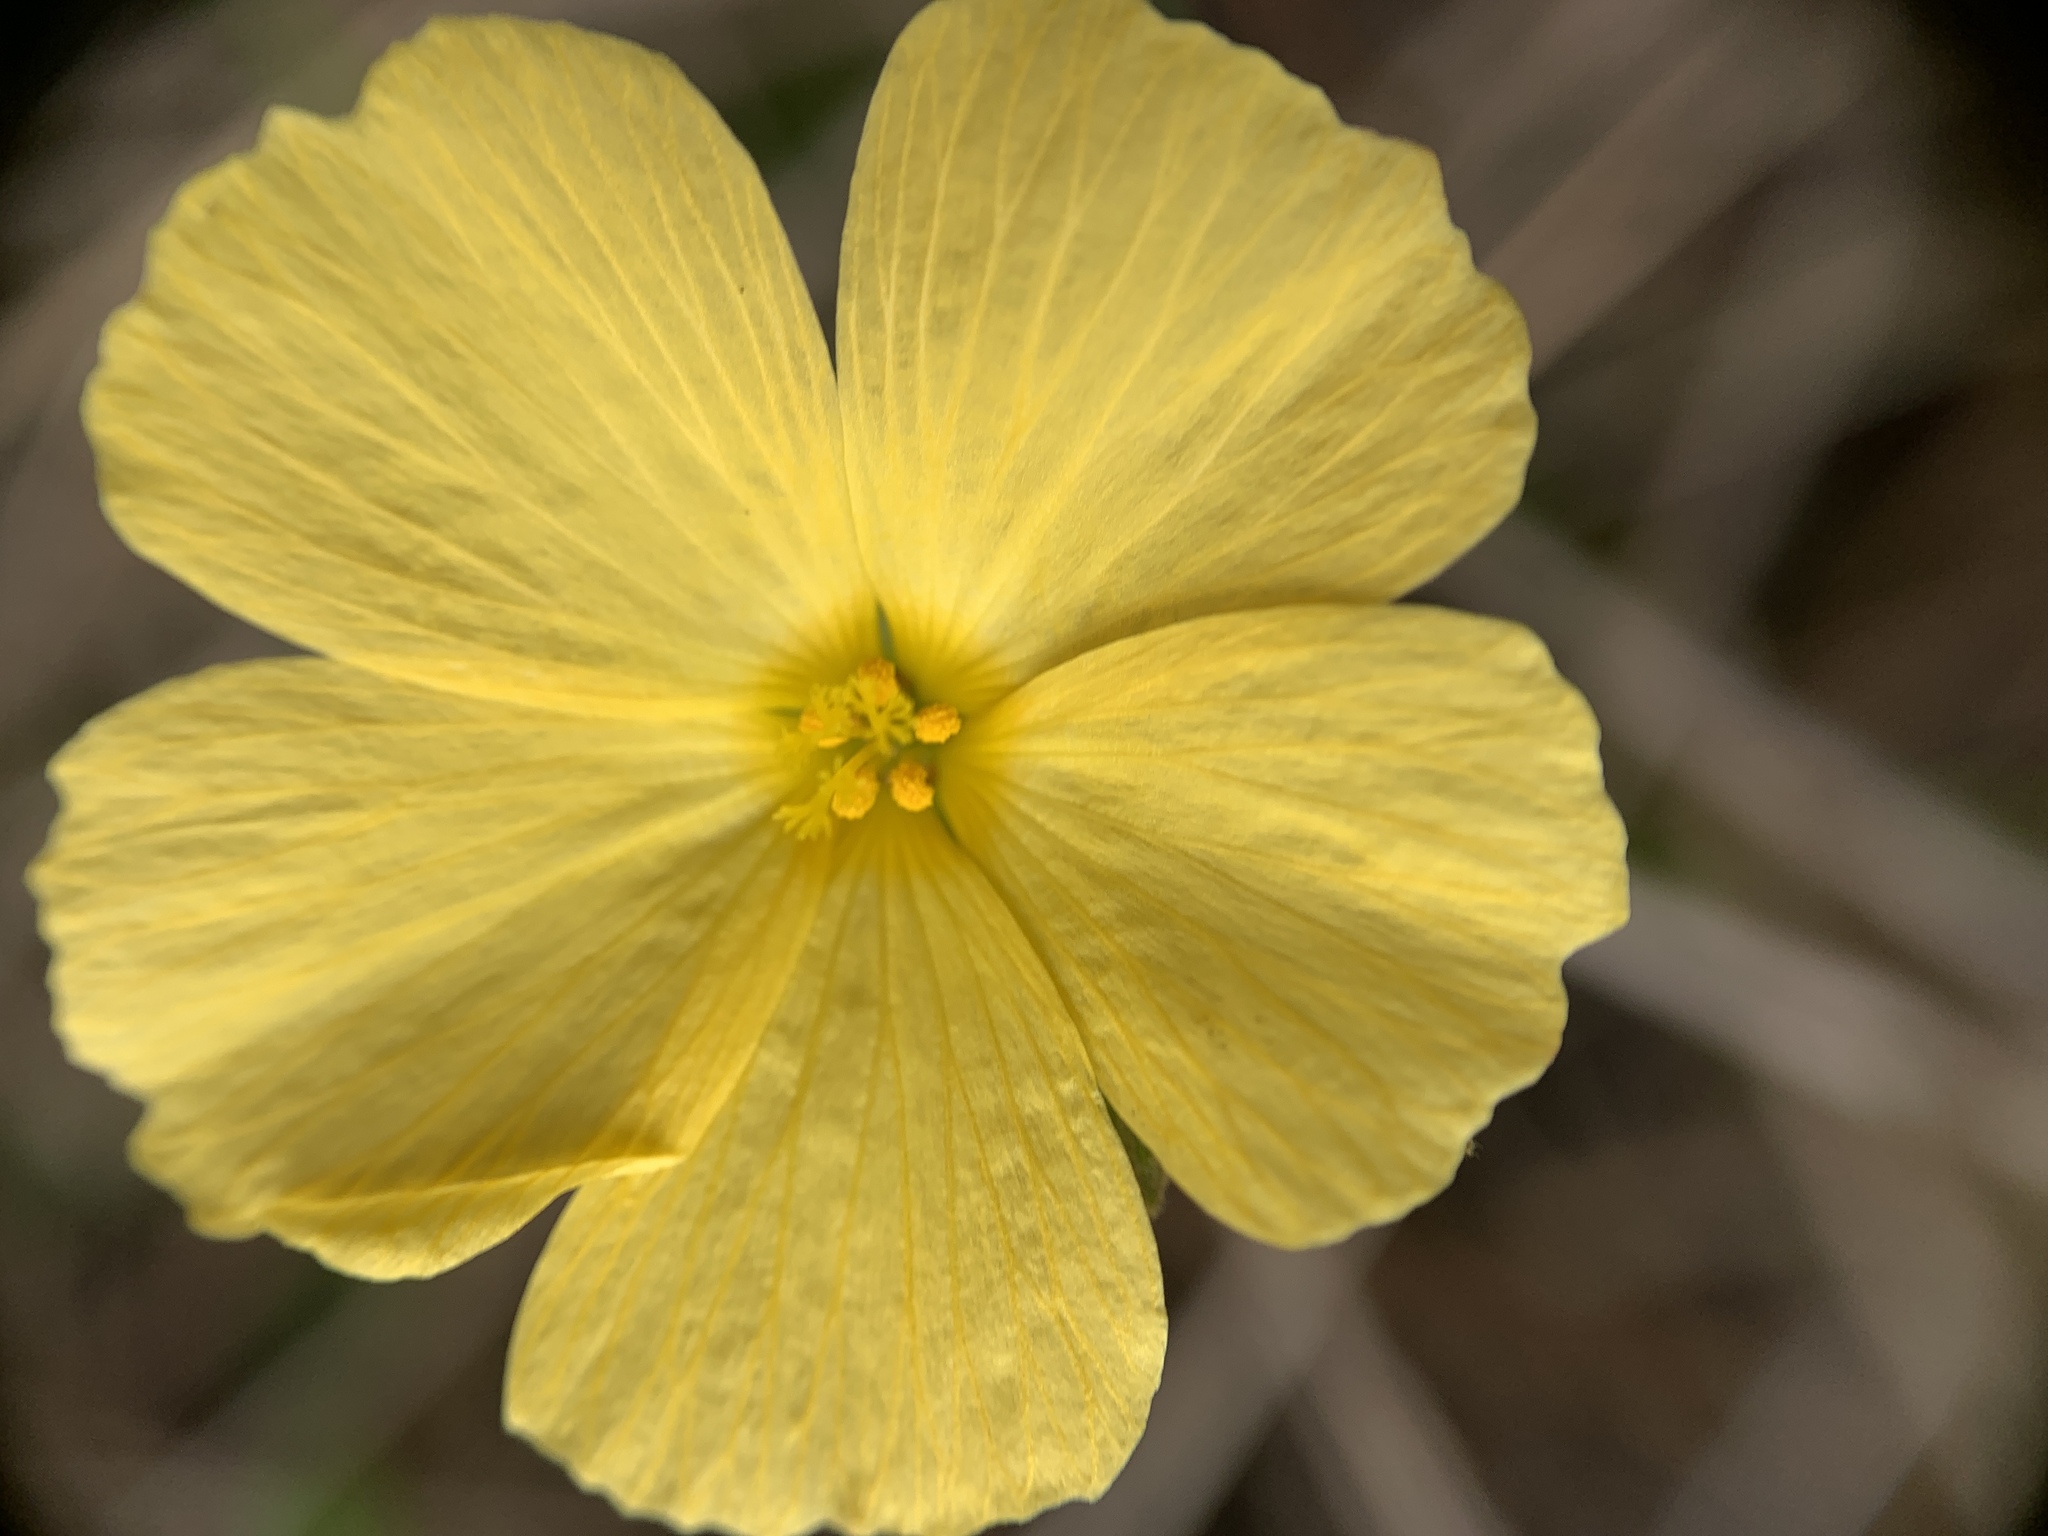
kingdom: Plantae
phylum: Tracheophyta
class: Magnoliopsida
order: Malpighiales
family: Turneraceae
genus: Piriqueta
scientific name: Piriqueta cistoides
